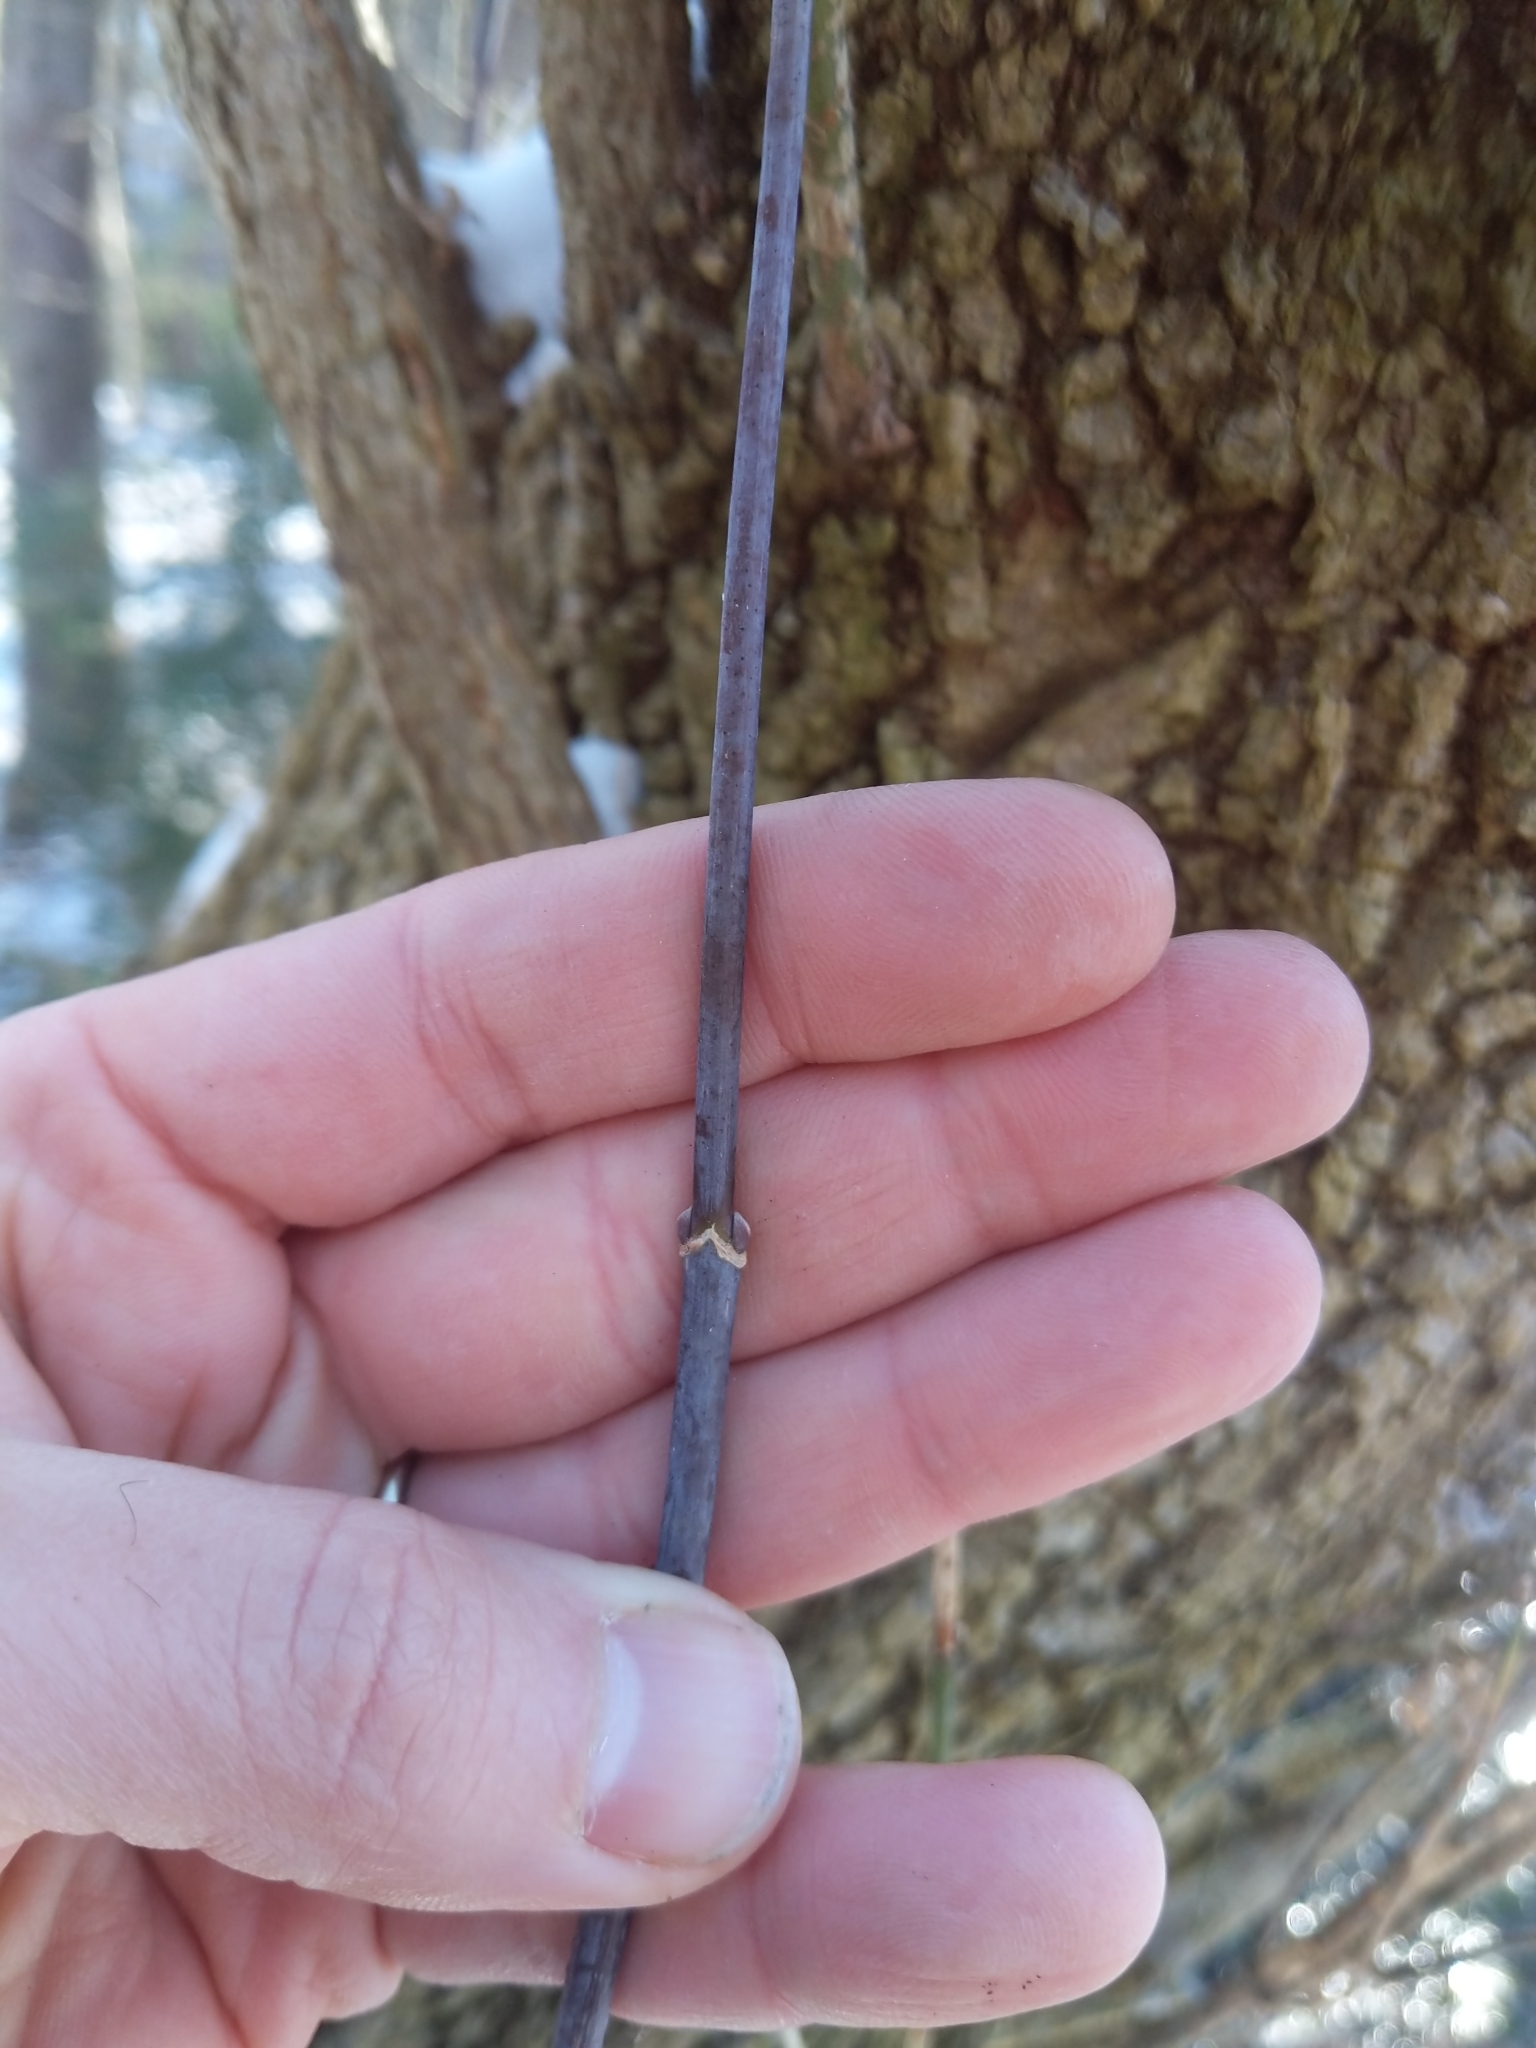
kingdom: Plantae
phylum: Tracheophyta
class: Magnoliopsida
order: Sapindales
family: Sapindaceae
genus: Acer
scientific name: Acer negundo
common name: Ashleaf maple
